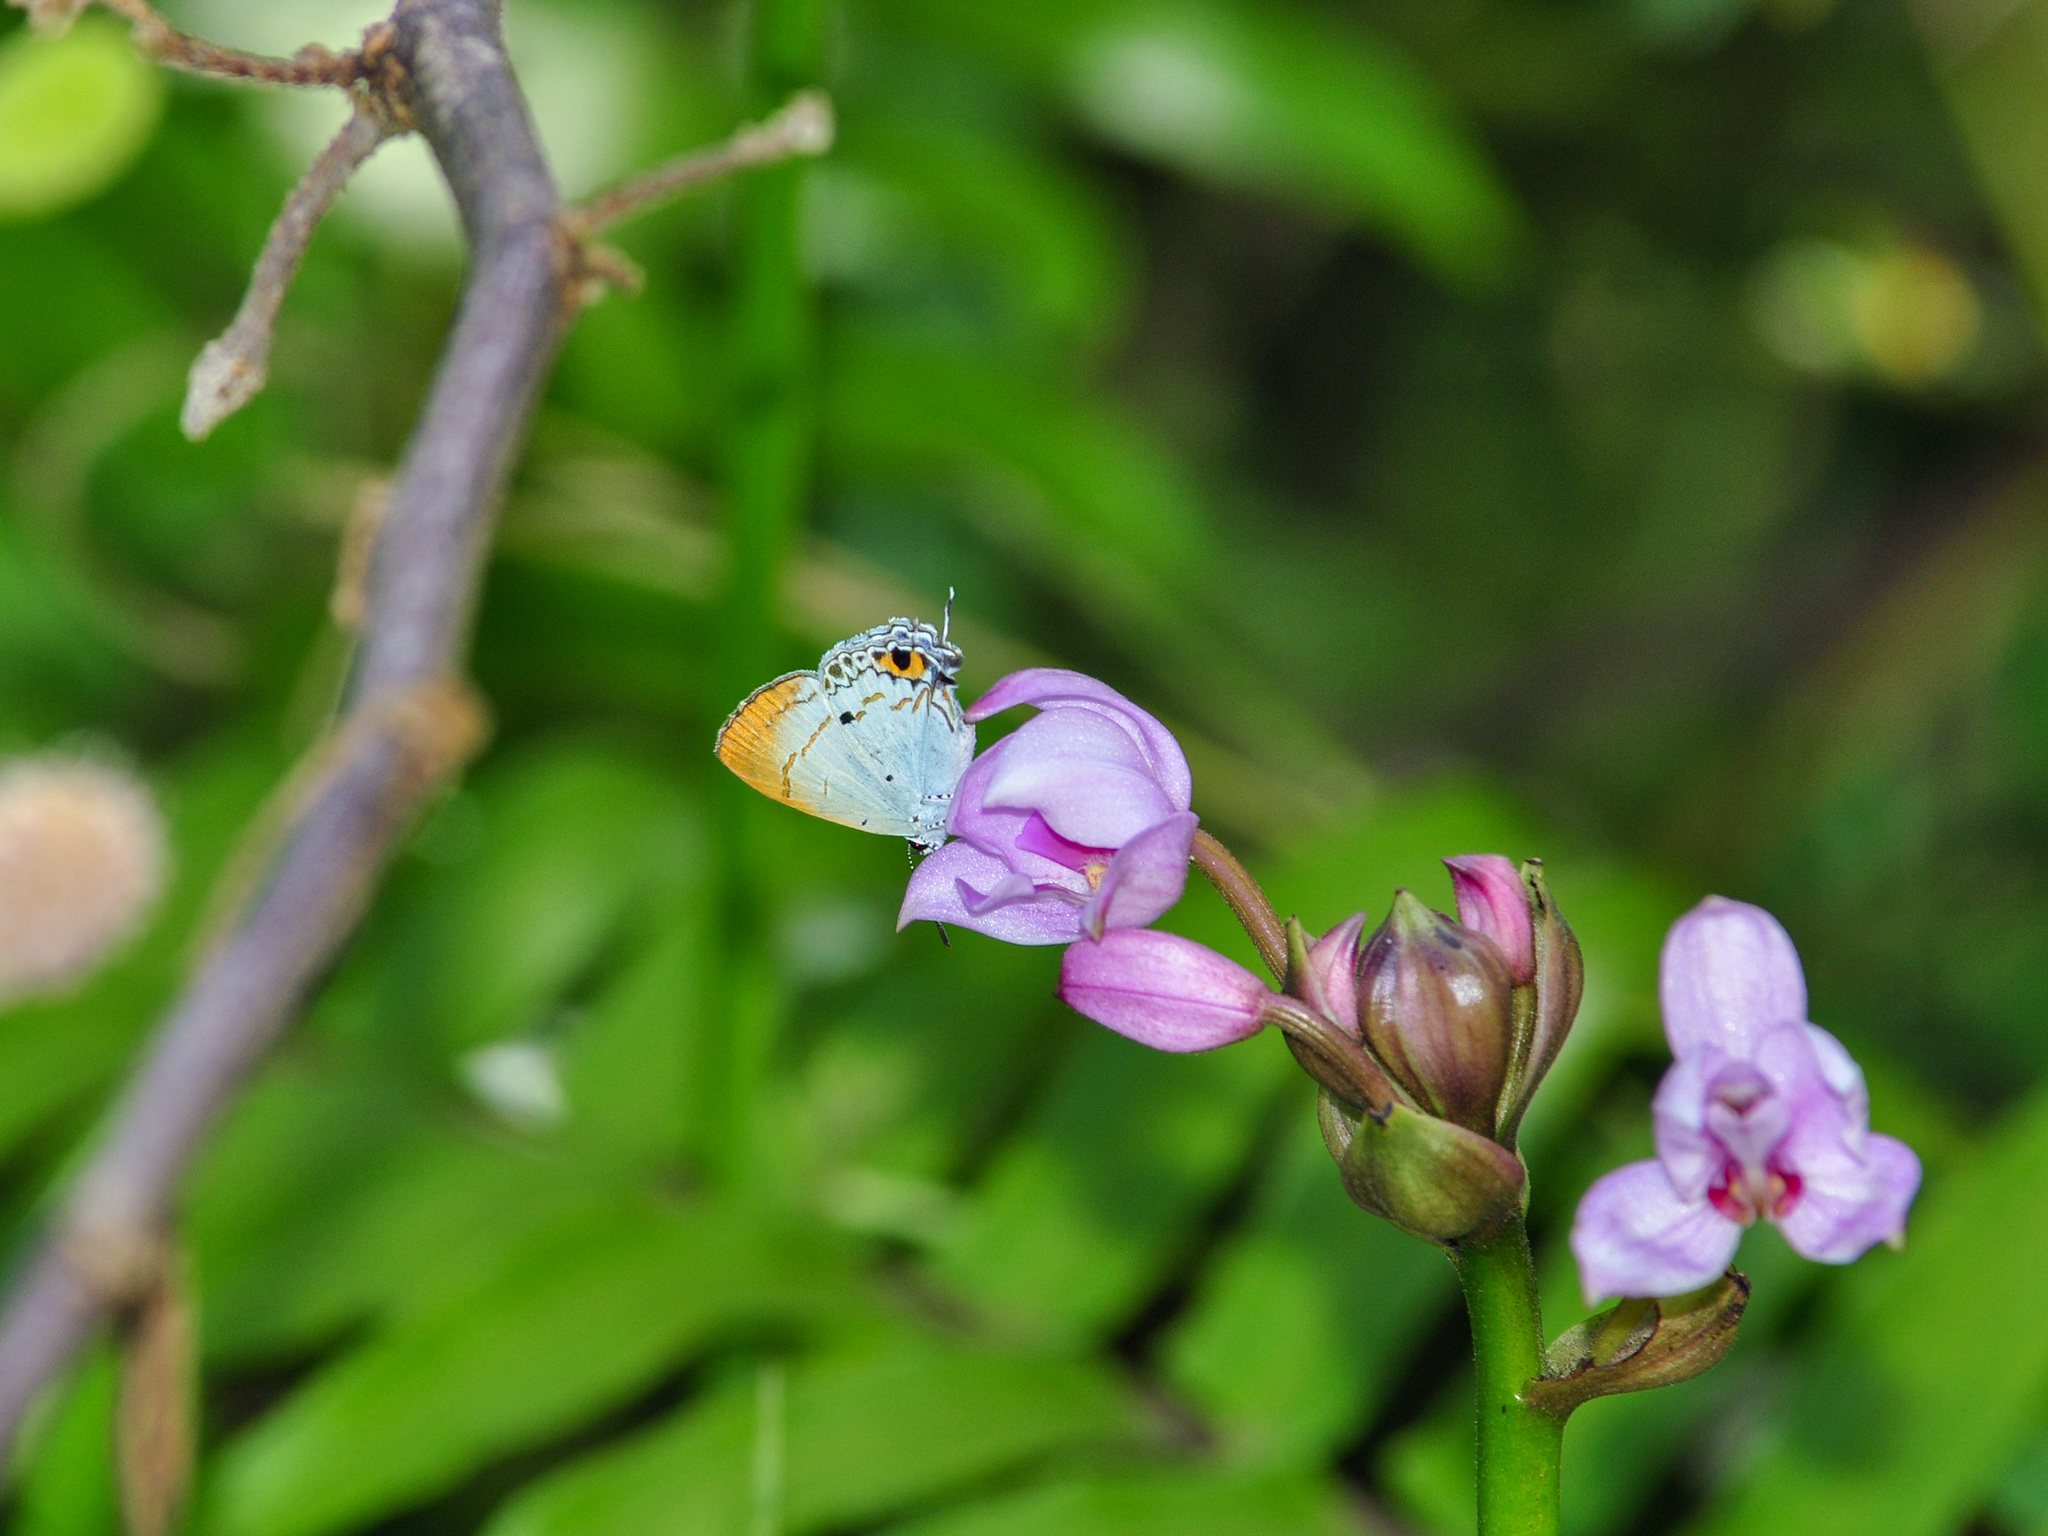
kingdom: Animalia
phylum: Arthropoda
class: Insecta
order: Lepidoptera
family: Lycaenidae
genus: Chliaria
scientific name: Chliaria othona
